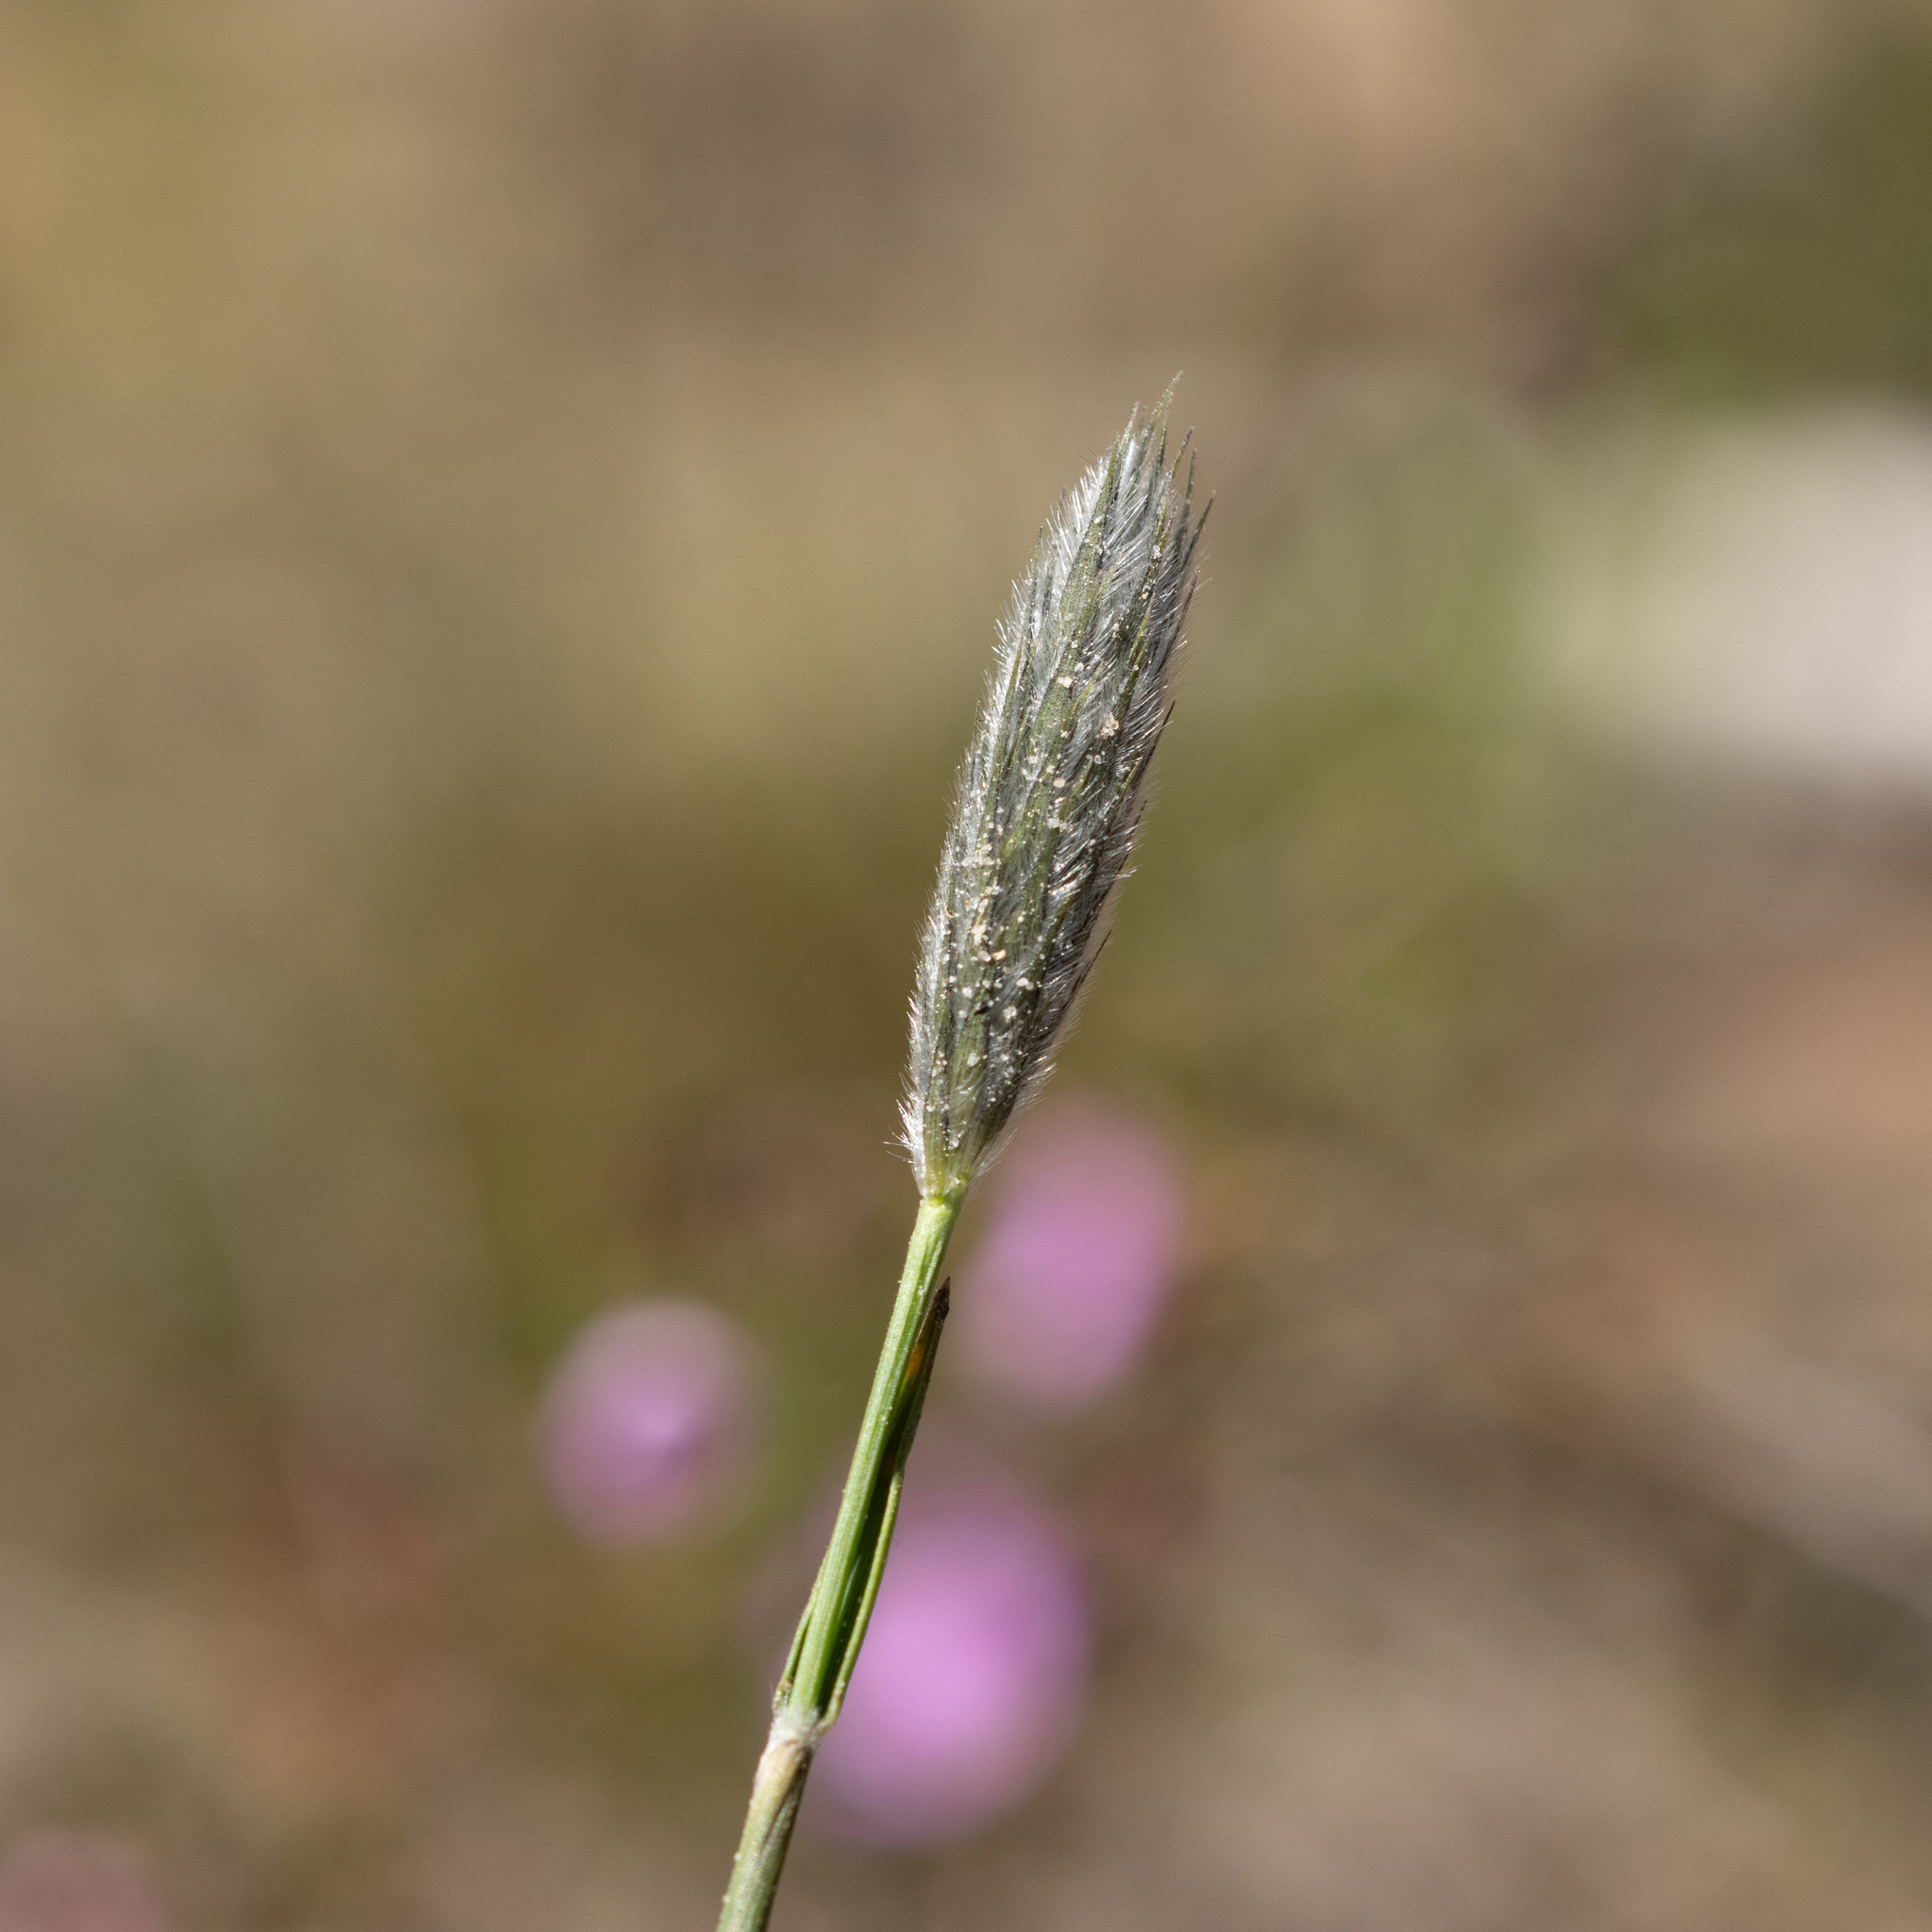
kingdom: Plantae
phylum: Tracheophyta
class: Liliopsida
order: Poales
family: Poaceae
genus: Neurachne
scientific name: Neurachne alopecuroidea
